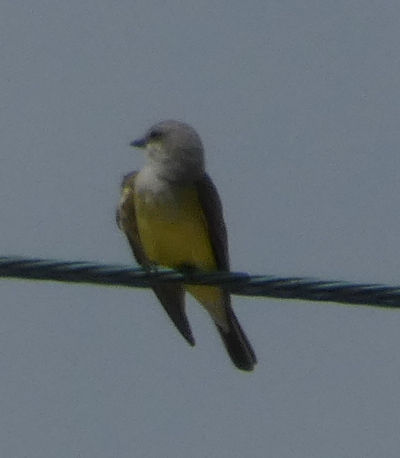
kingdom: Animalia
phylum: Chordata
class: Aves
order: Passeriformes
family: Tyrannidae
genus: Tyrannus
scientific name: Tyrannus verticalis
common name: Western kingbird
